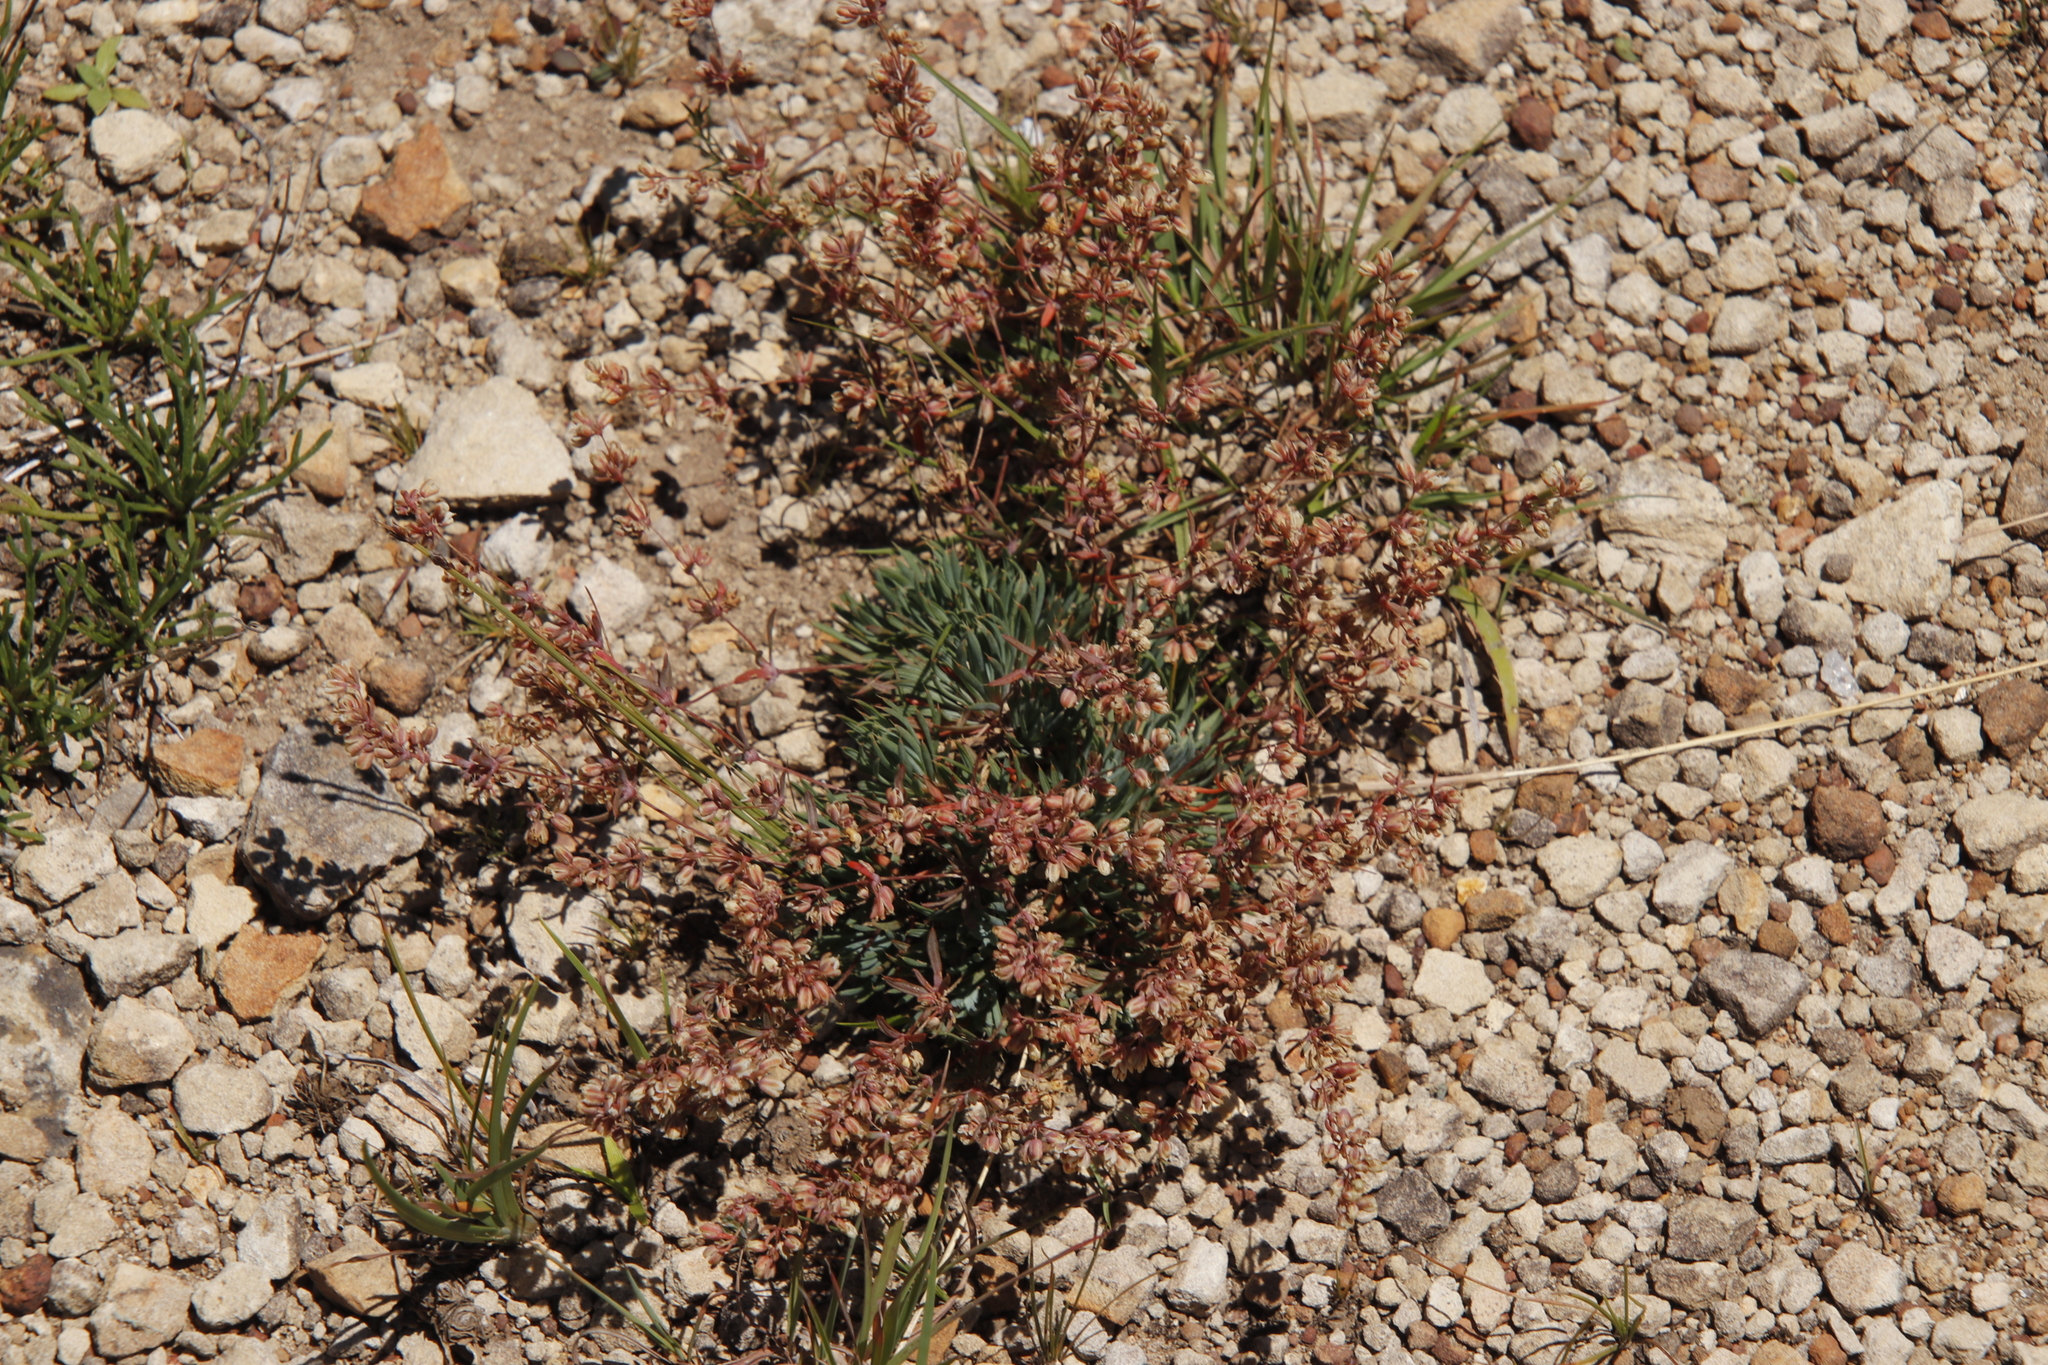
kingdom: Plantae
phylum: Tracheophyta
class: Magnoliopsida
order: Caryophyllales
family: Molluginaceae
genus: Psammotropha
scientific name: Psammotropha mucronata
